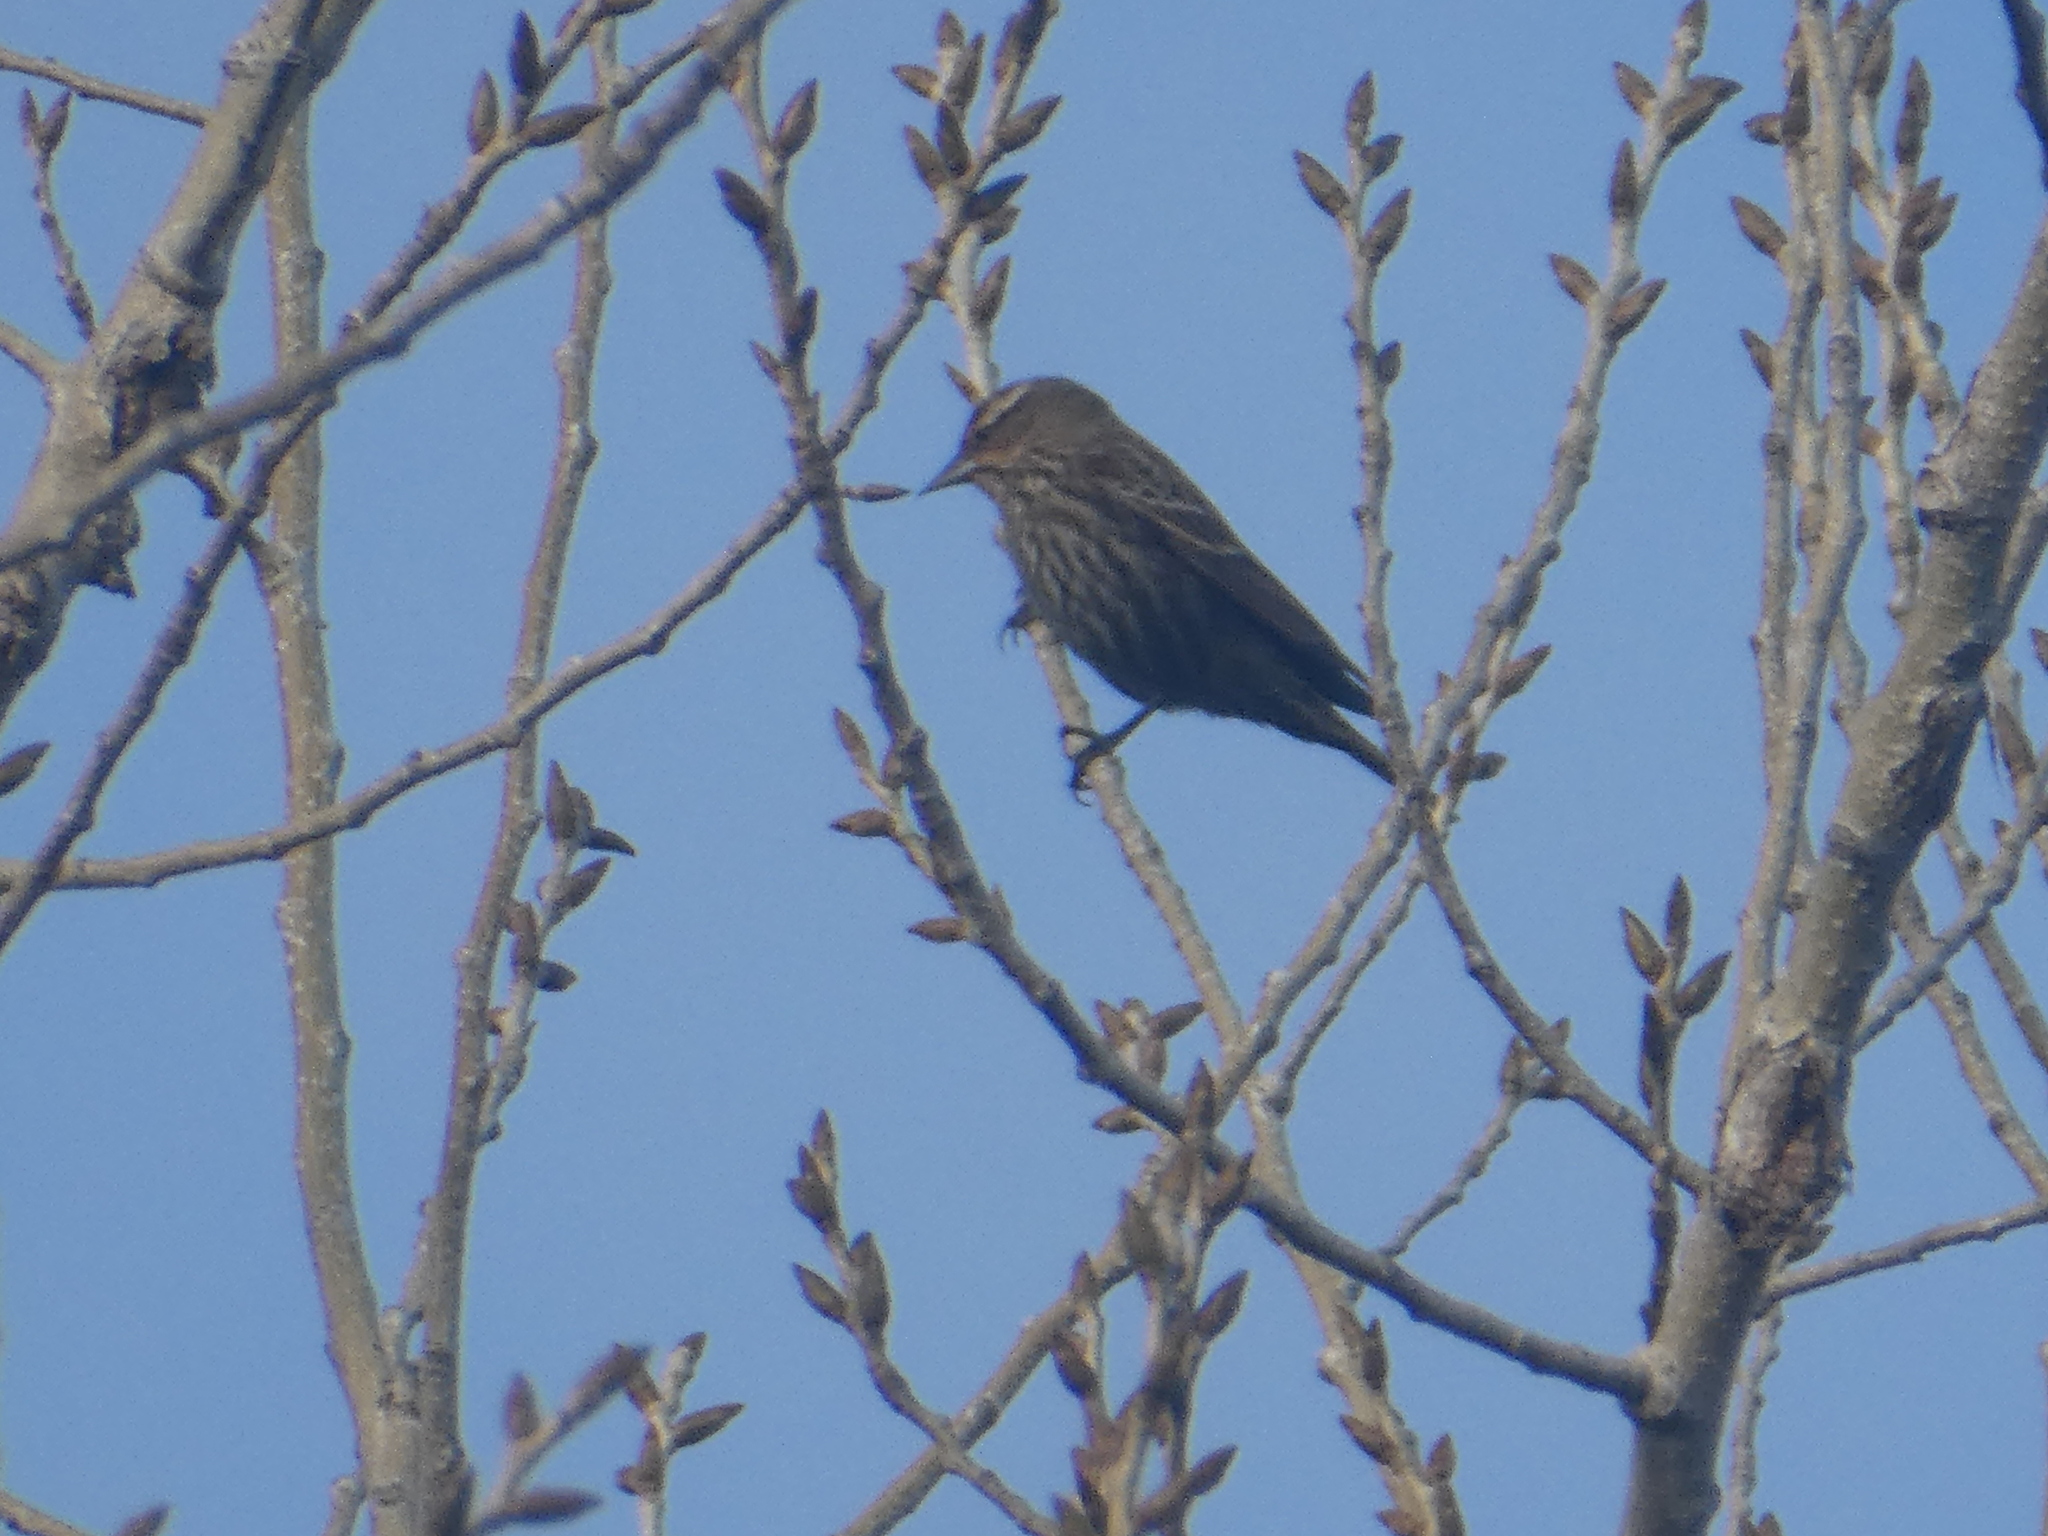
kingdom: Animalia
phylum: Chordata
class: Aves
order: Passeriformes
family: Icteridae
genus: Agelaius
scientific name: Agelaius phoeniceus
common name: Red-winged blackbird
